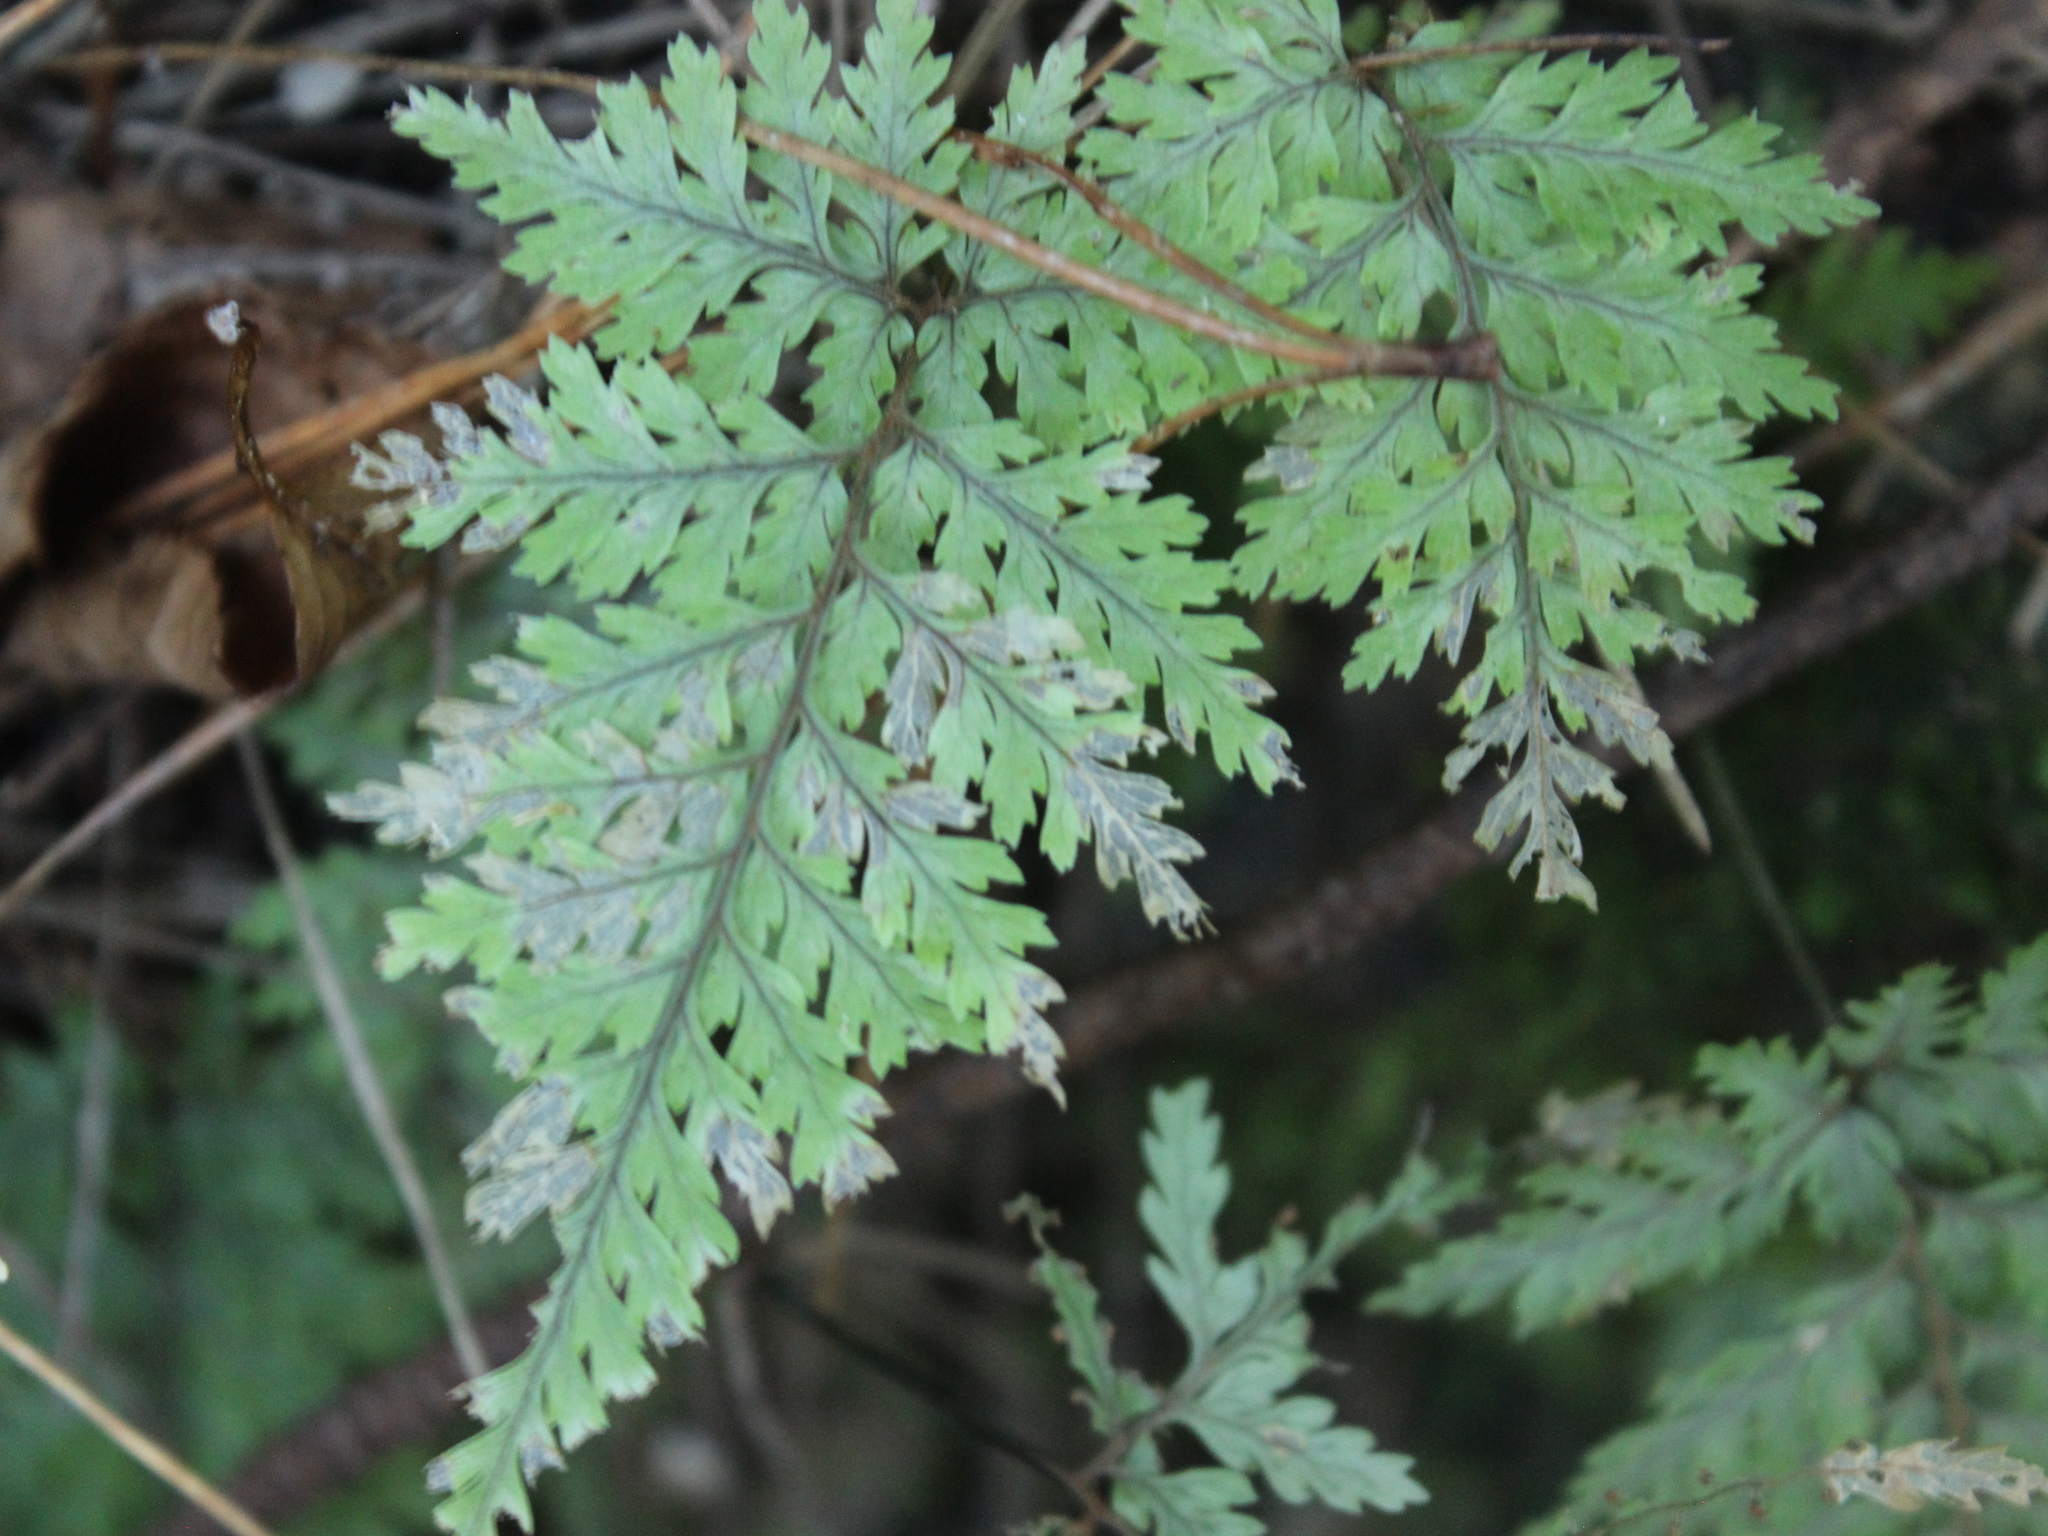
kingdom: Plantae
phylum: Tracheophyta
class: Polypodiopsida
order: Polypodiales
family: Dryopteridaceae
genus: Parapolystichum
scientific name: Parapolystichum glabellum
